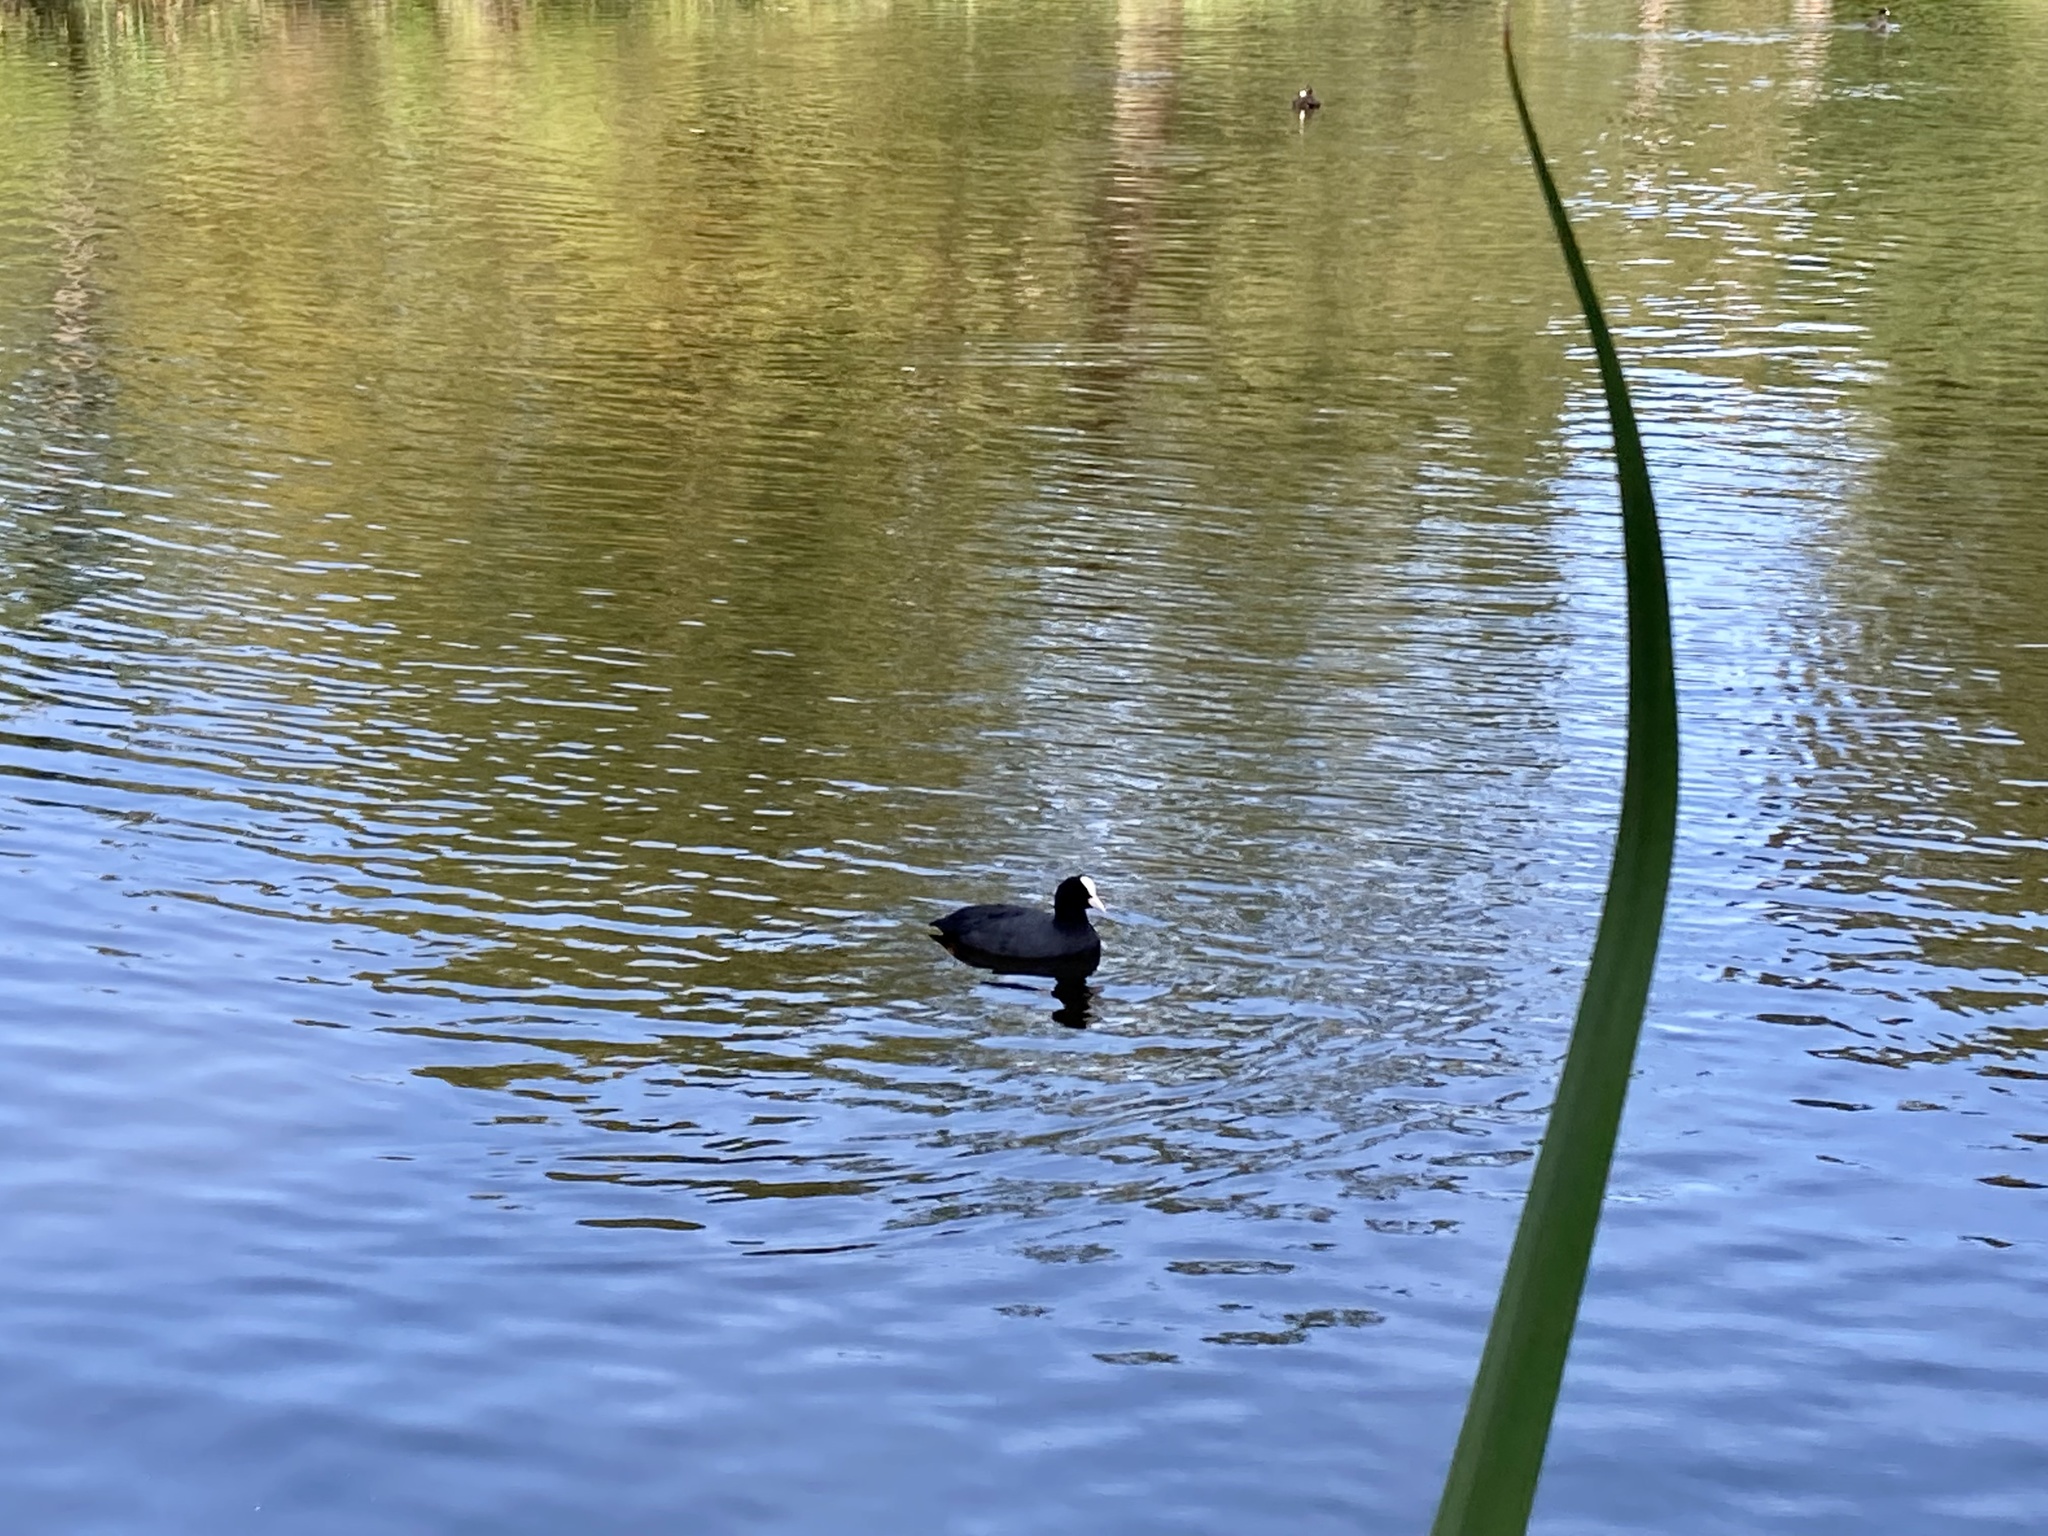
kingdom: Animalia
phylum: Chordata
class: Aves
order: Gruiformes
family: Rallidae
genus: Fulica
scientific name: Fulica atra
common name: Eurasian coot
